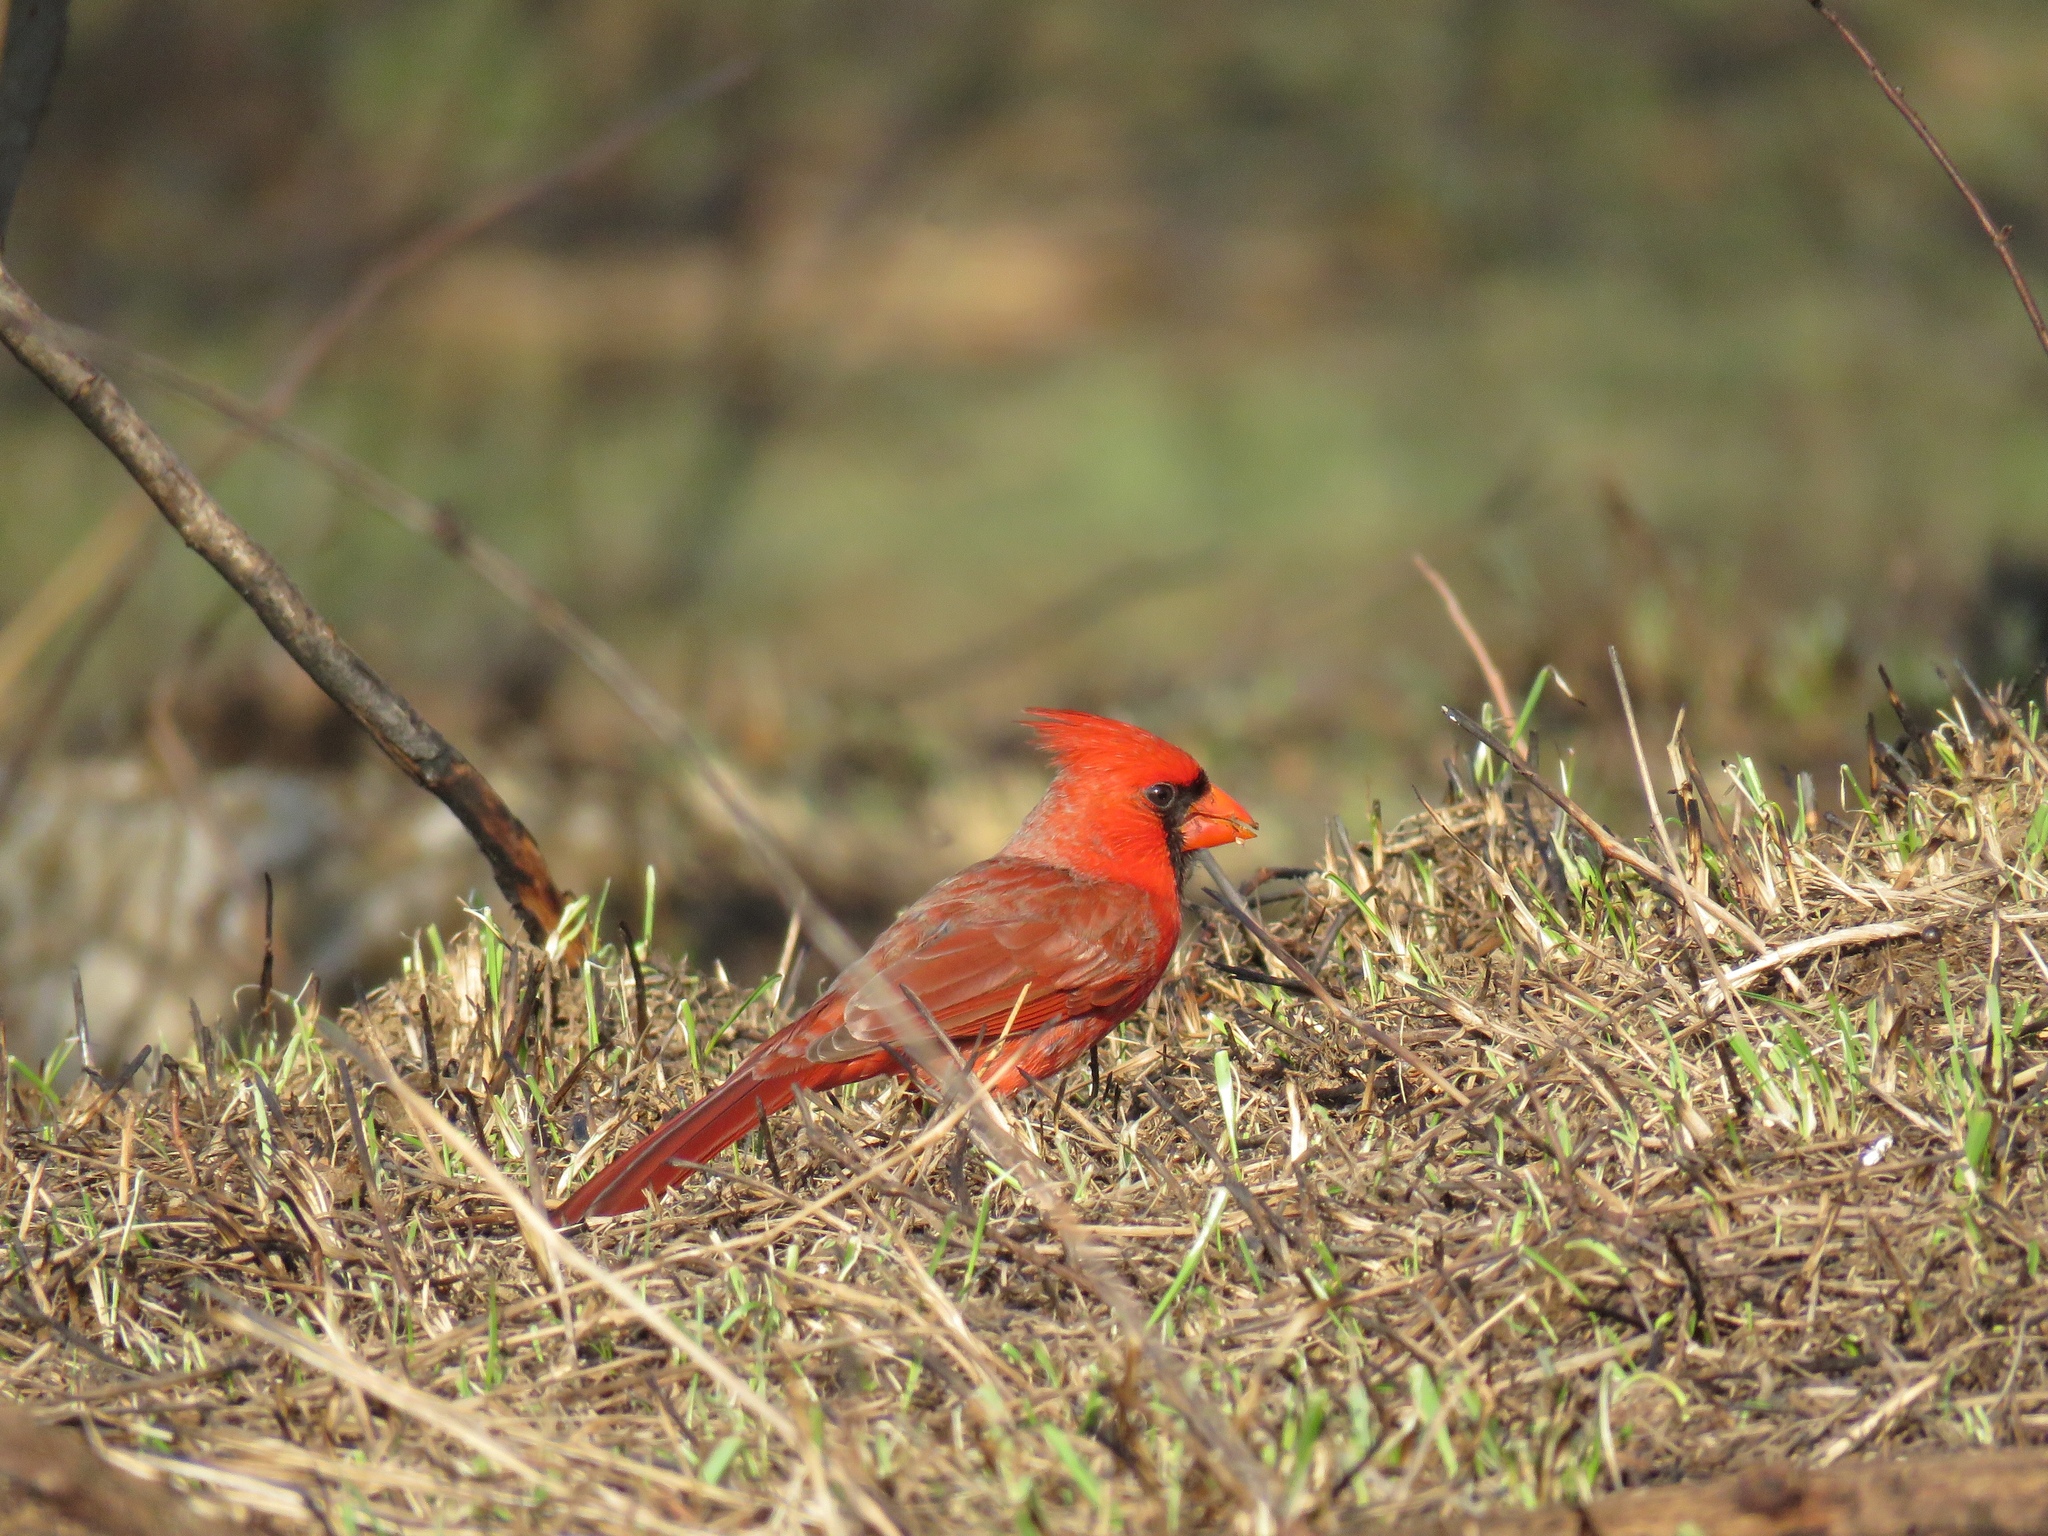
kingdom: Animalia
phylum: Chordata
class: Aves
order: Passeriformes
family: Cardinalidae
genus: Cardinalis
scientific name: Cardinalis cardinalis
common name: Northern cardinal
